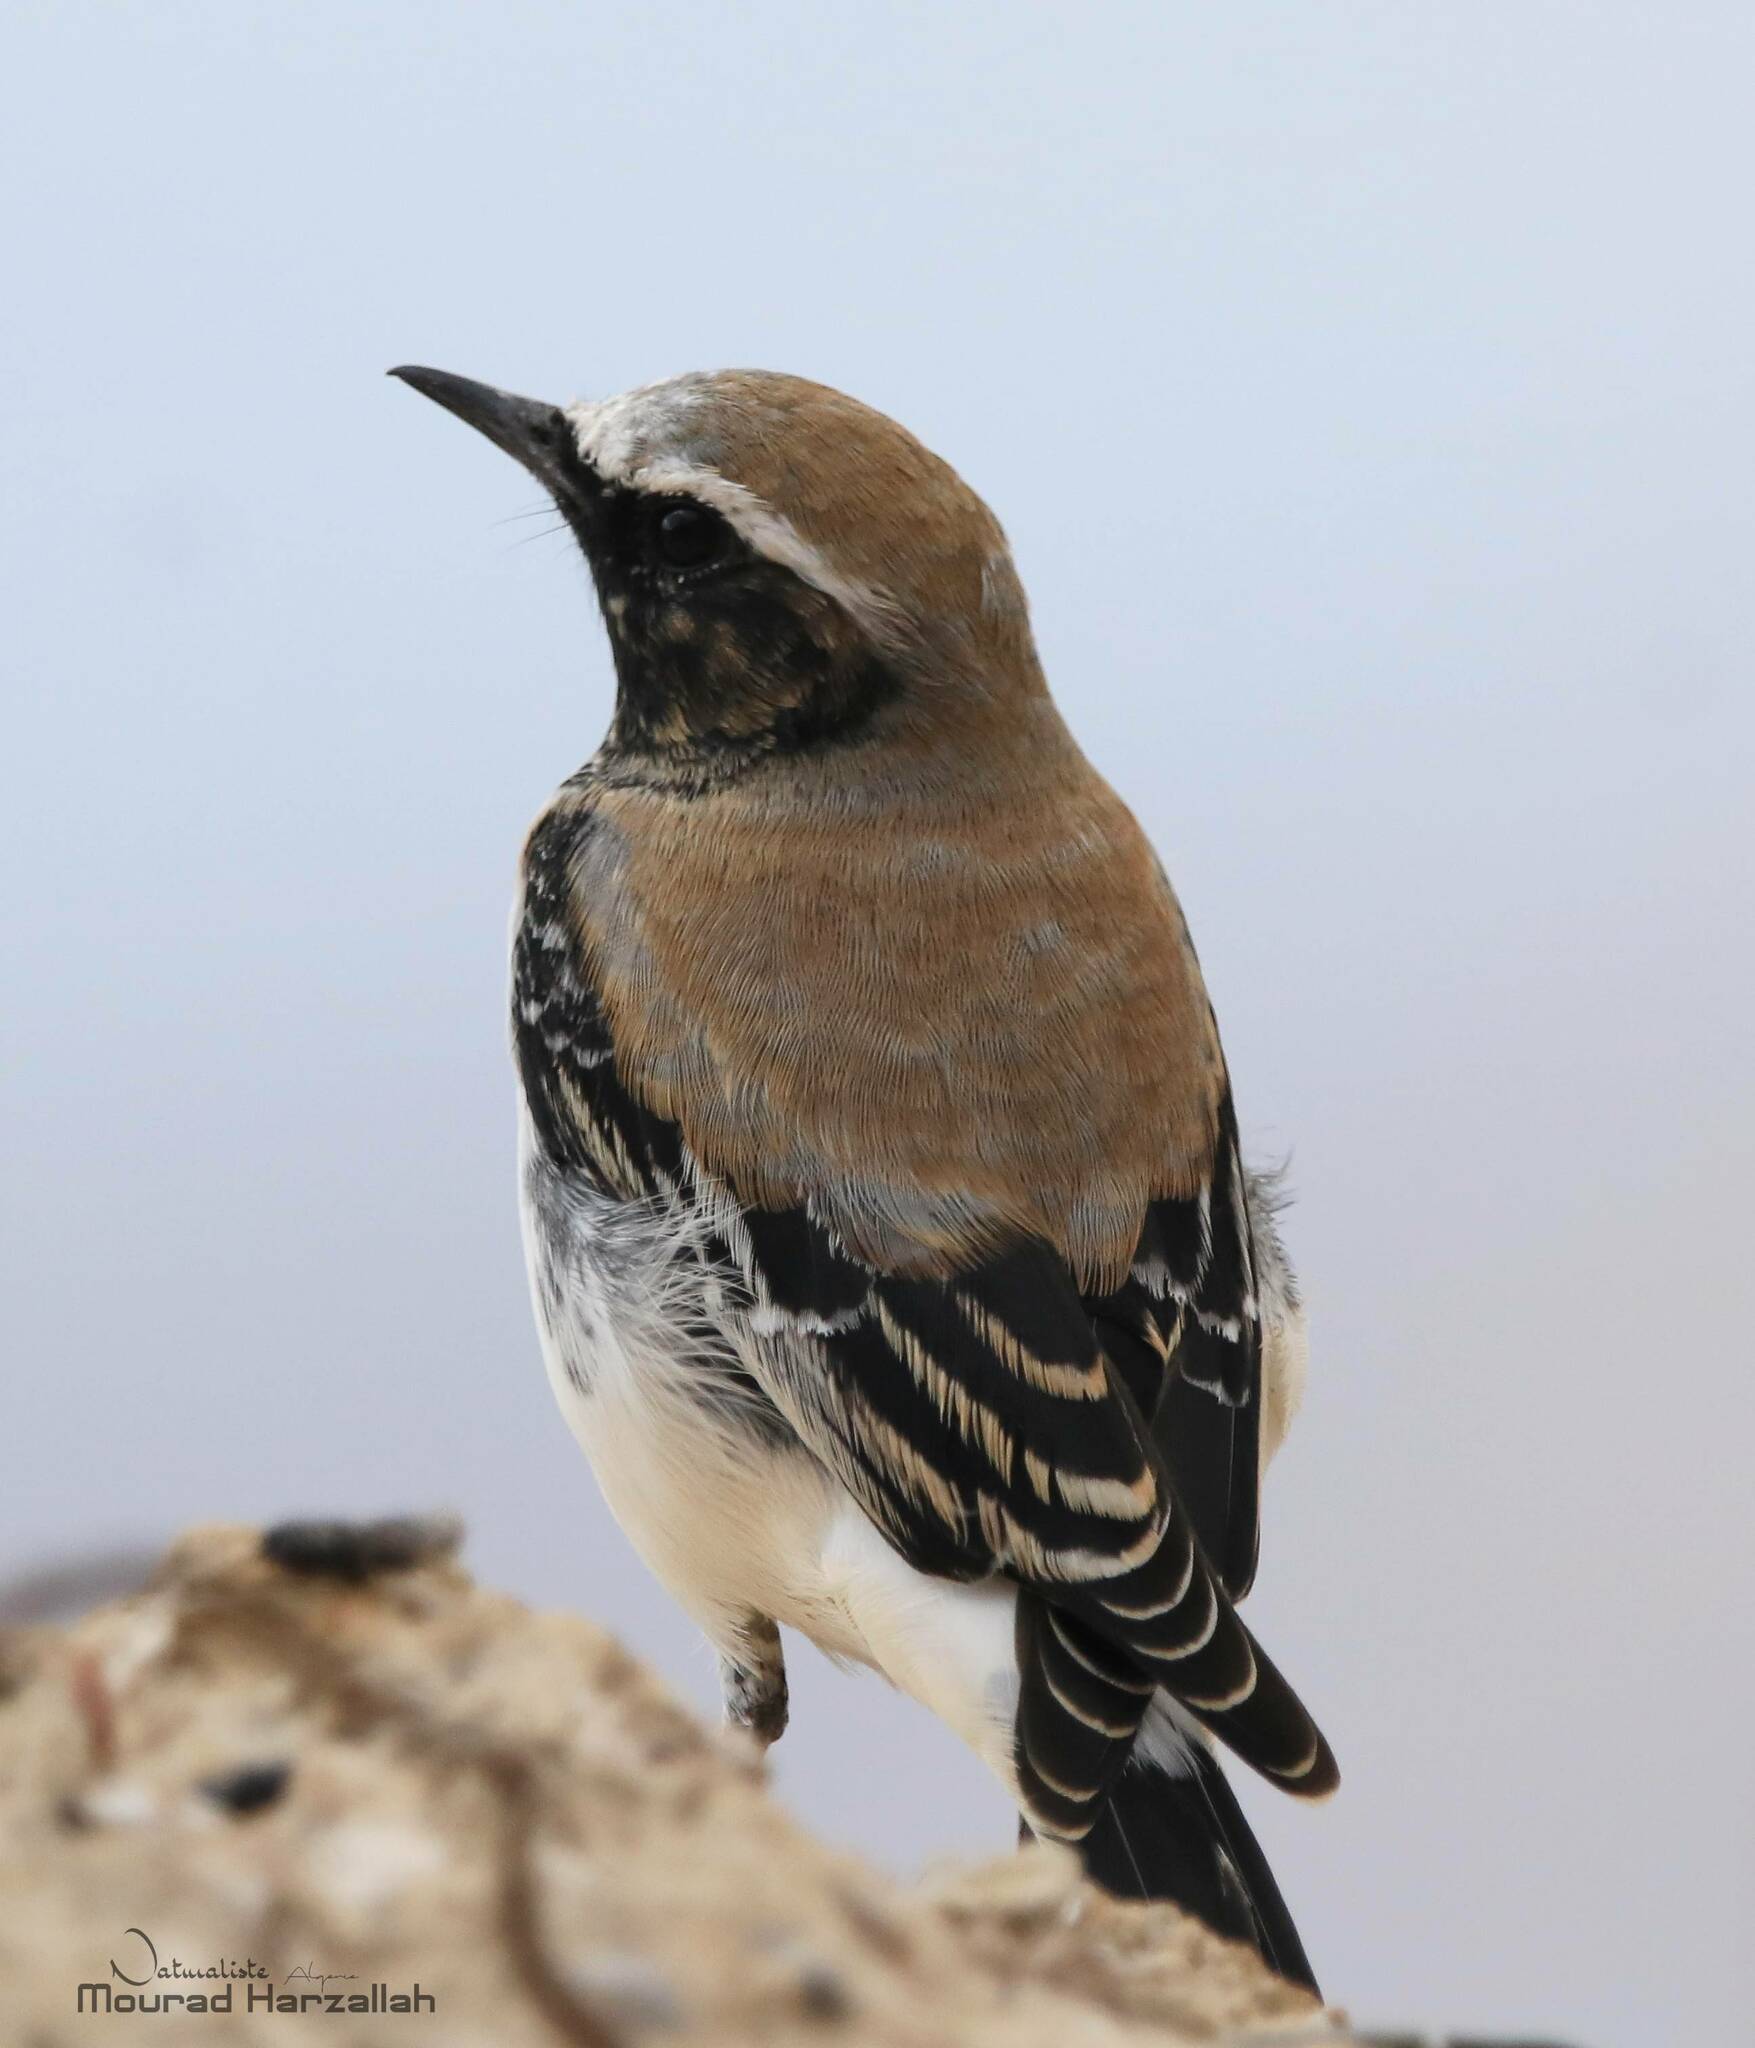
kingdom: Animalia
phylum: Chordata
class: Aves
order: Passeriformes
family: Muscicapidae
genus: Oenanthe
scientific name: Oenanthe oenanthe
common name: Northern wheatear
